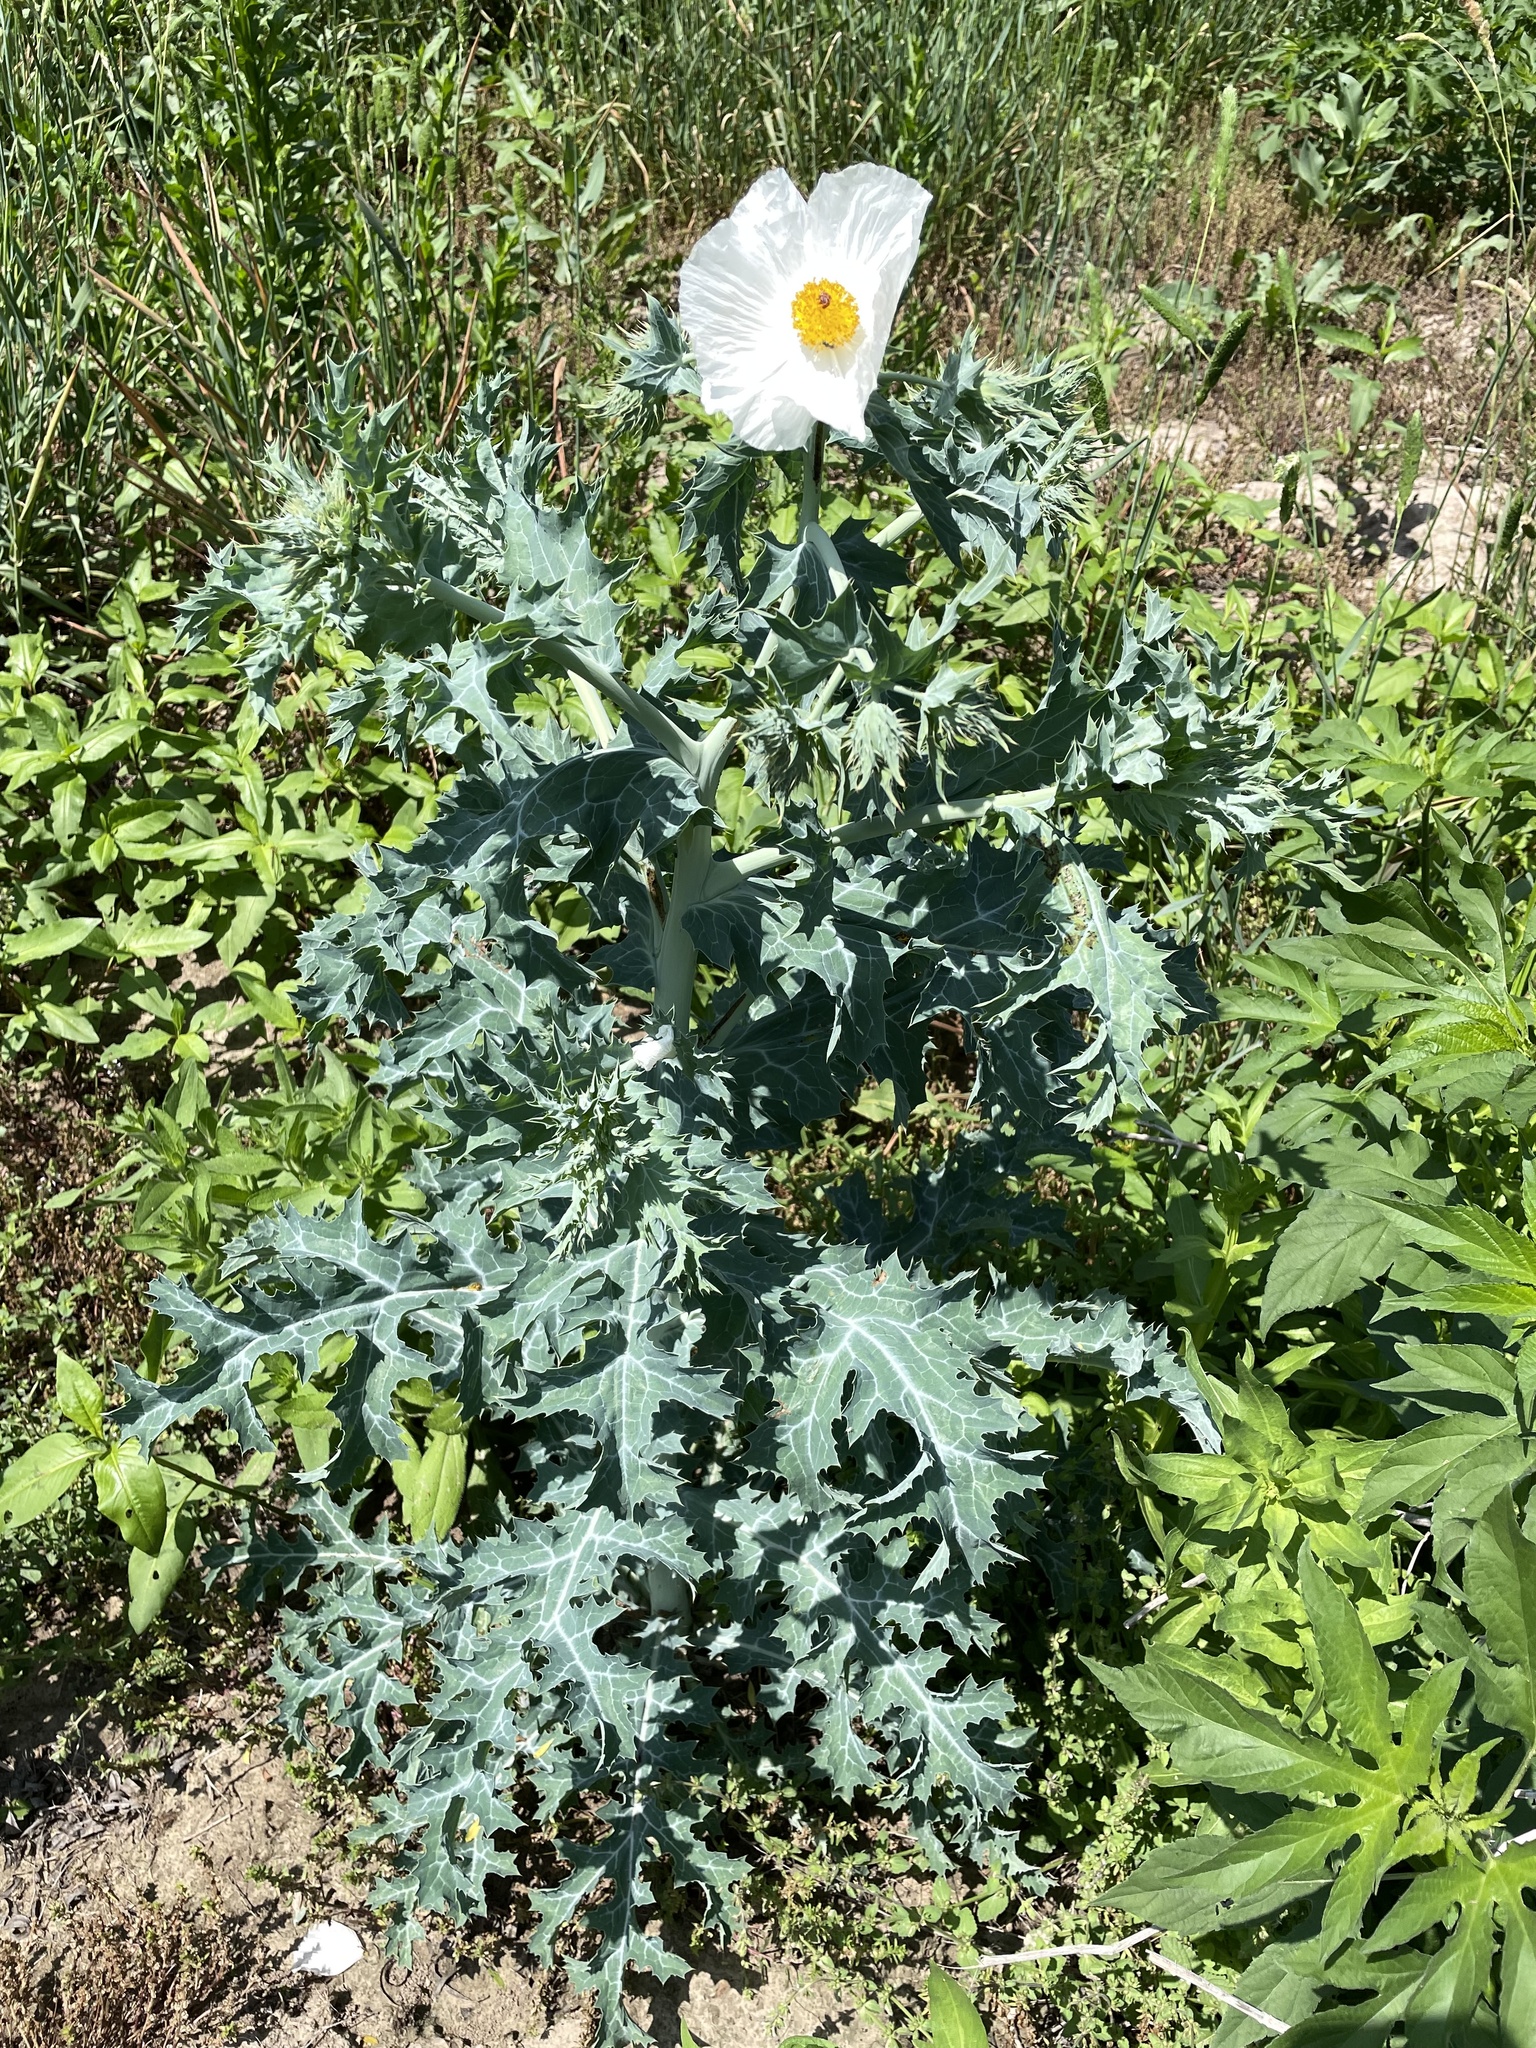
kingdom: Plantae
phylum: Tracheophyta
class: Magnoliopsida
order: Ranunculales
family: Papaveraceae
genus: Argemone
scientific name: Argemone albiflora
